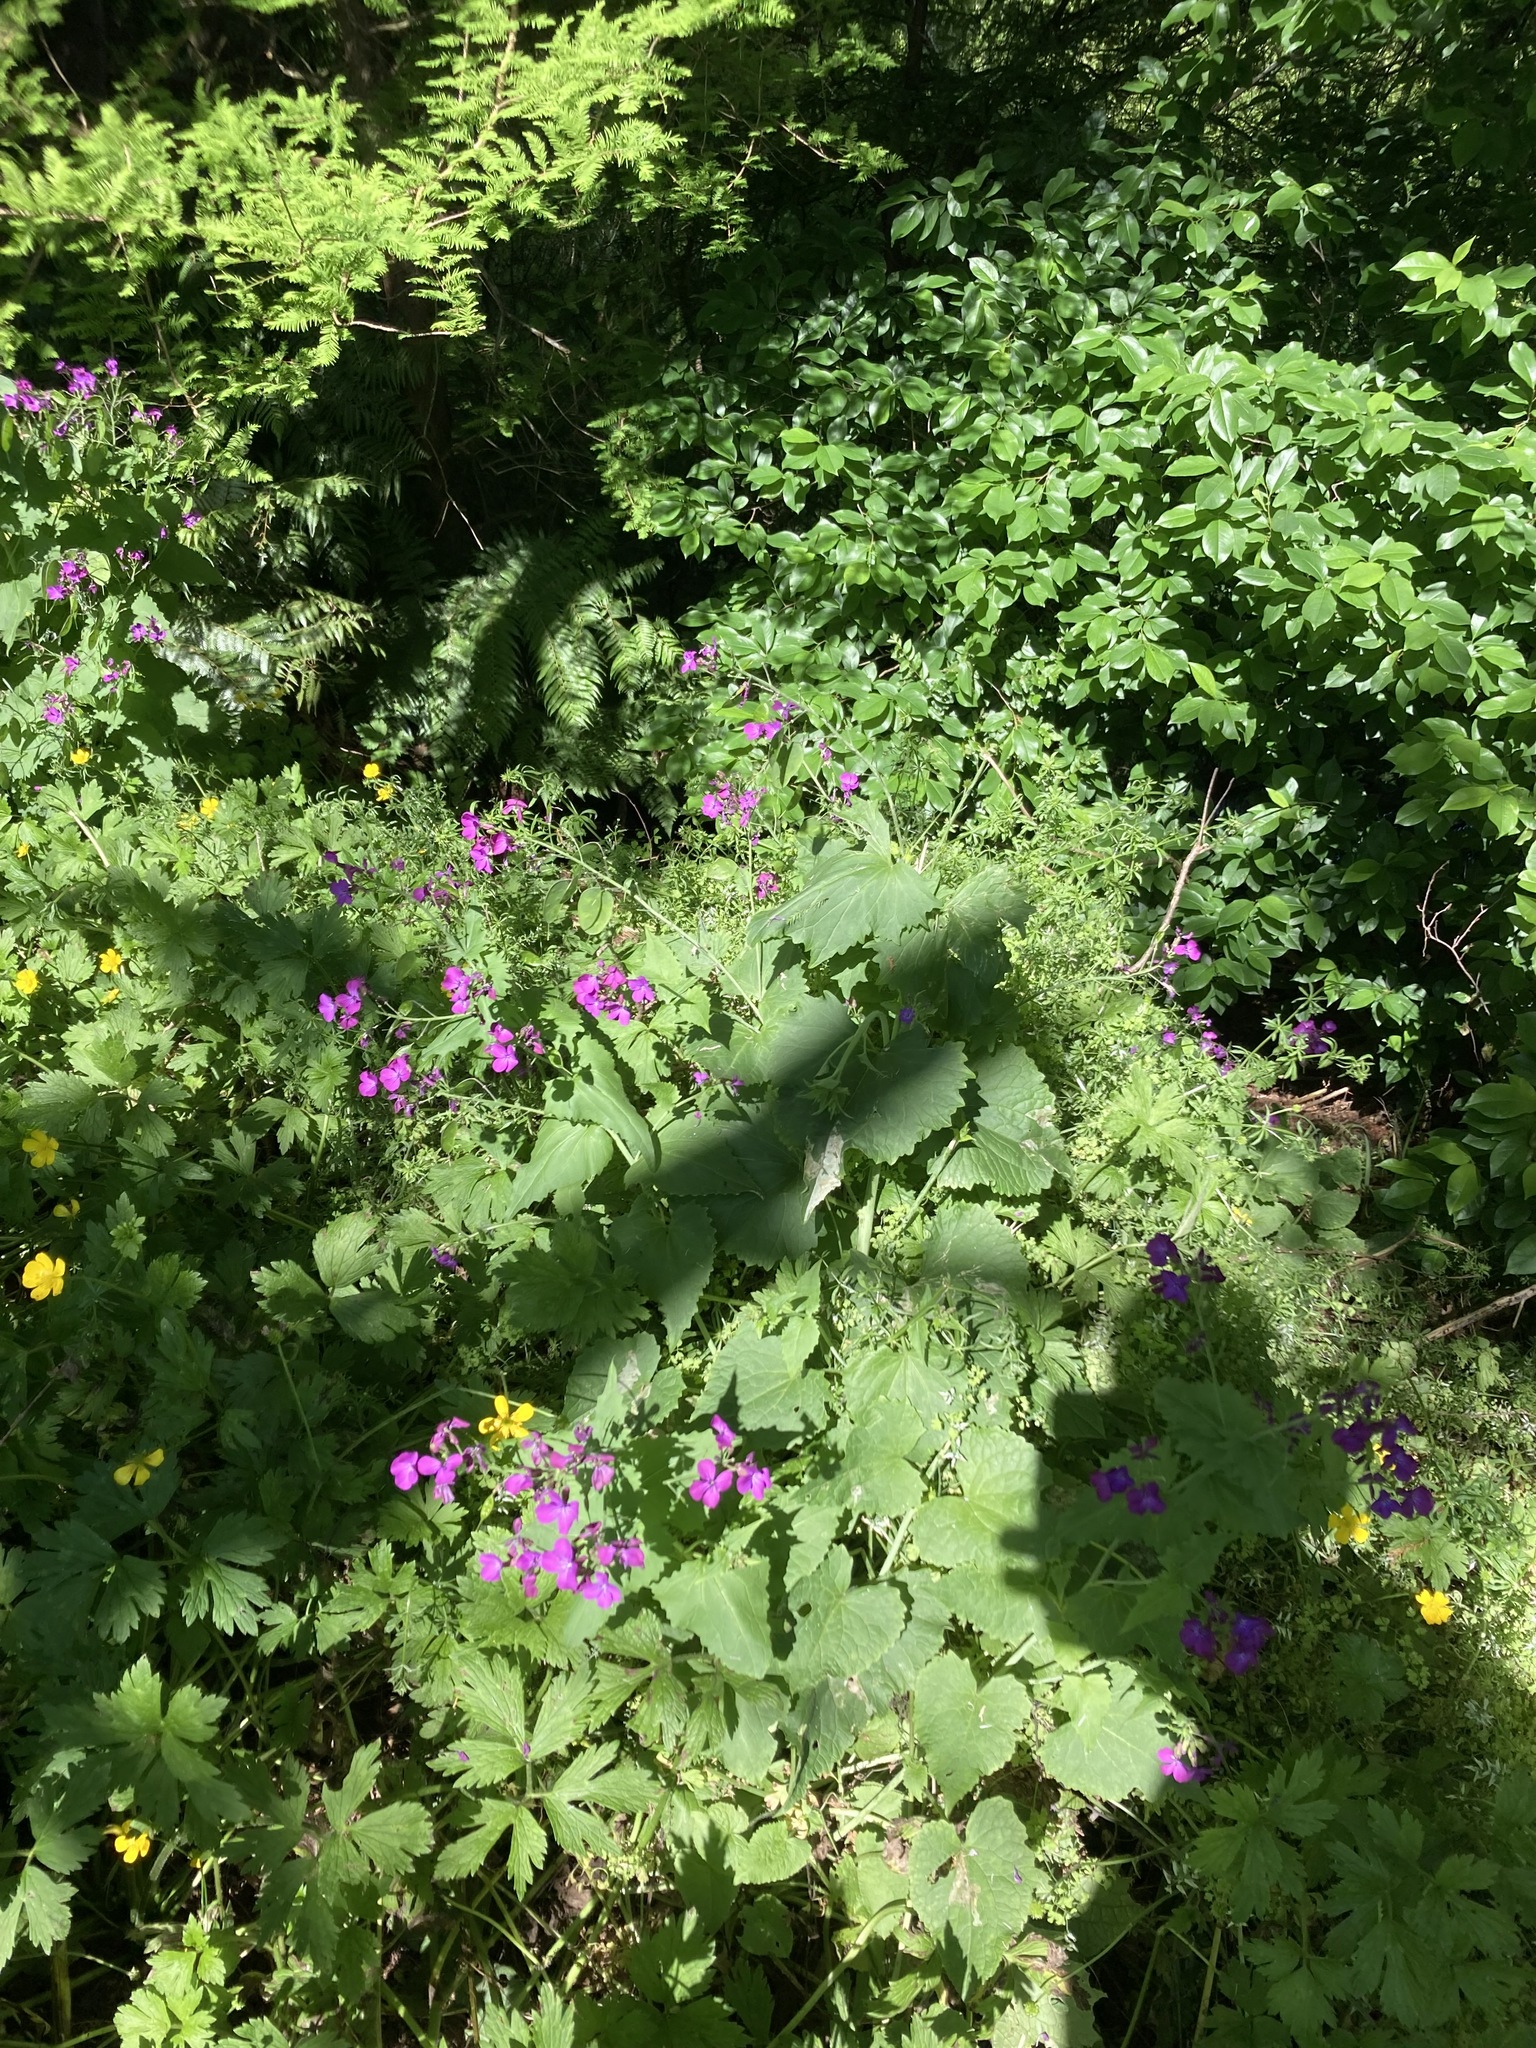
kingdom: Plantae
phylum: Tracheophyta
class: Magnoliopsida
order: Brassicales
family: Brassicaceae
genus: Lunaria
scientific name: Lunaria annua
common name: Honesty
